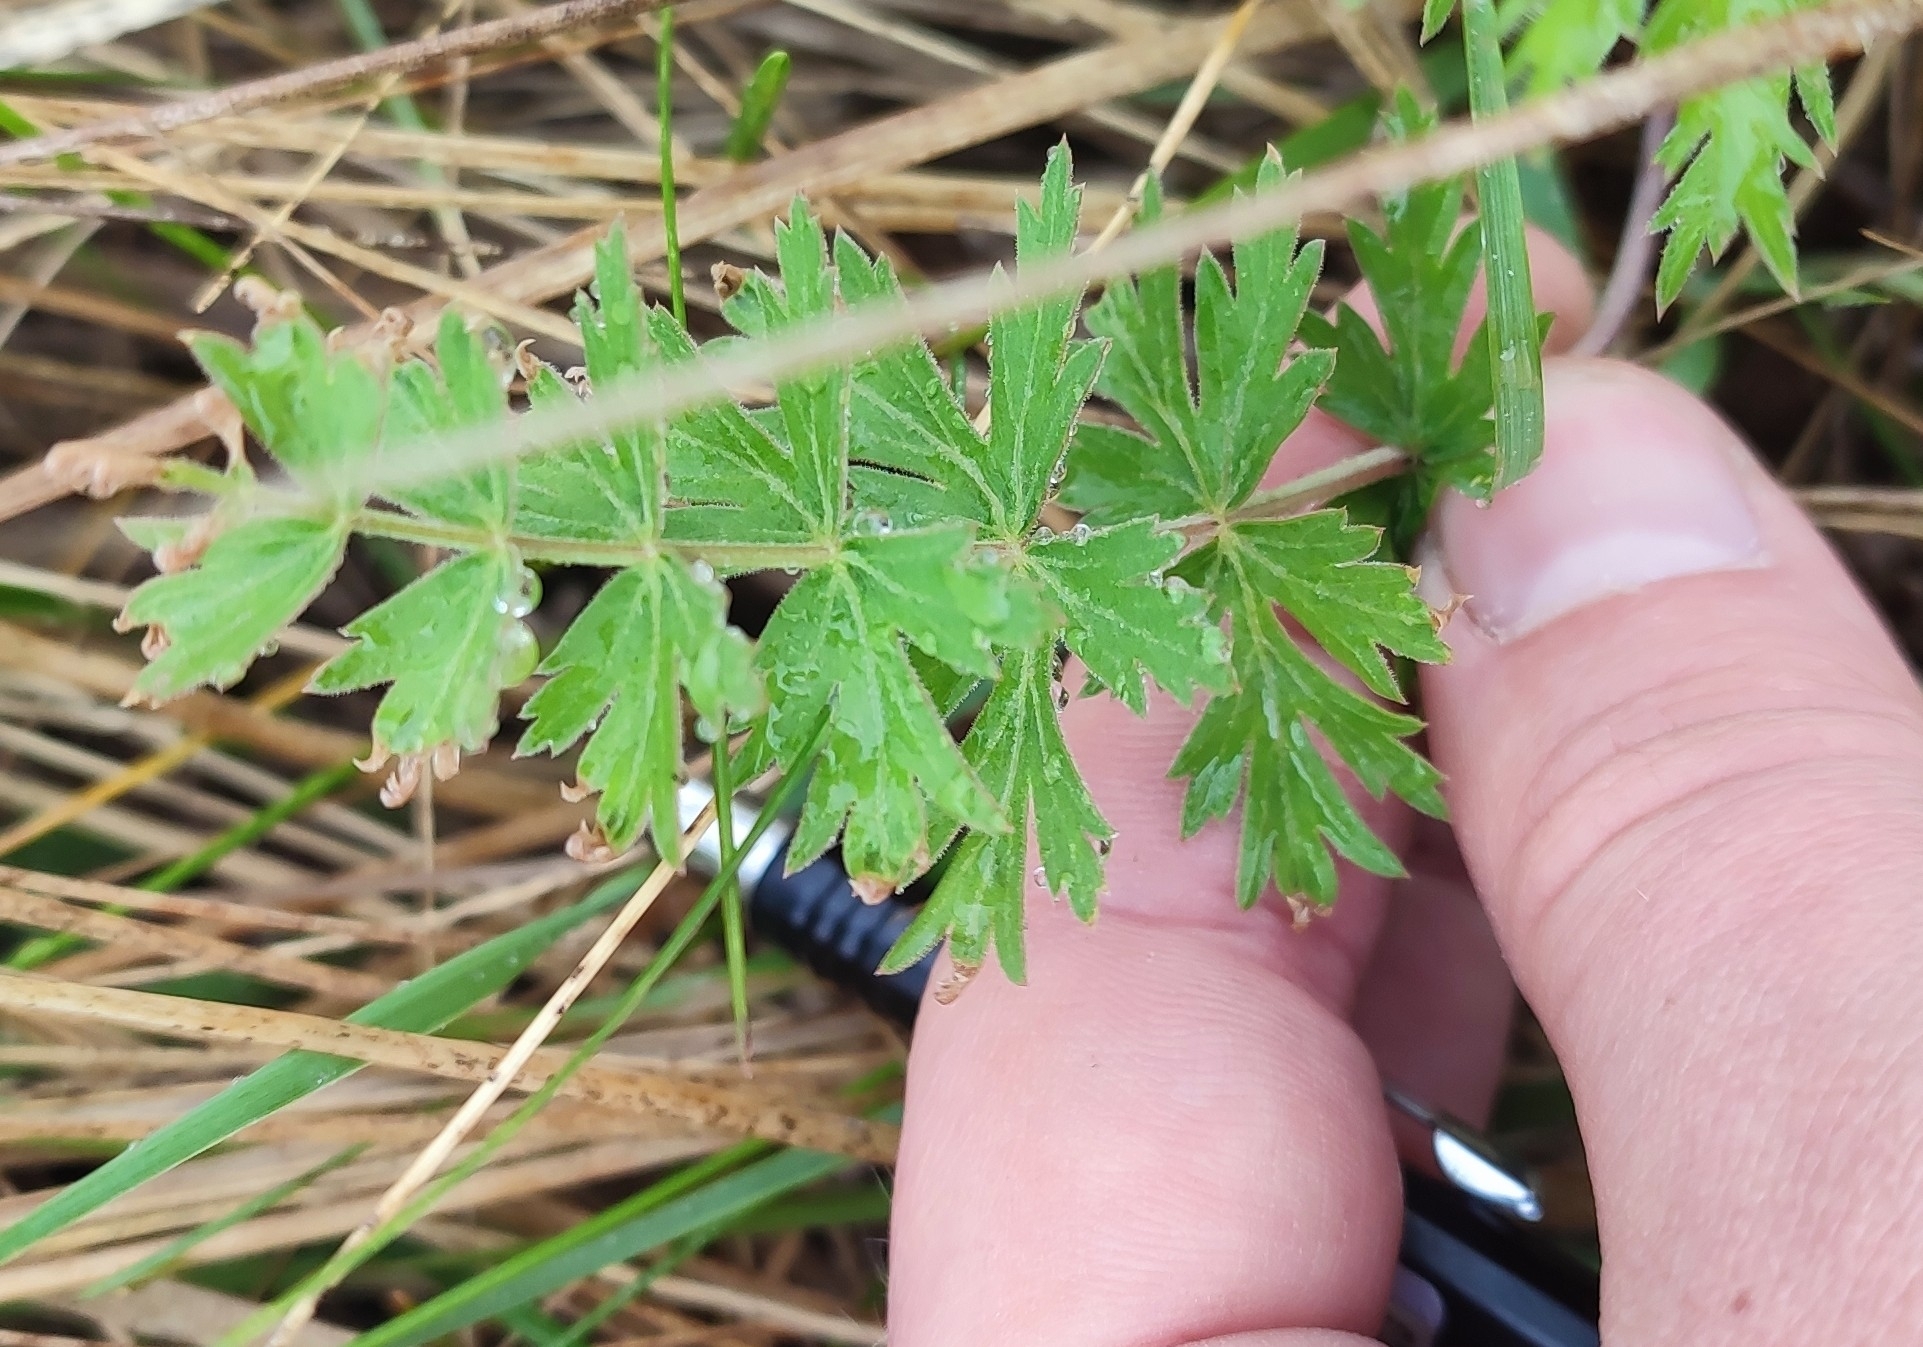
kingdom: Plantae
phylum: Tracheophyta
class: Magnoliopsida
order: Apiales
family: Apiaceae
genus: Seseli
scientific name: Seseli libanotis
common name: Mooncarrot
